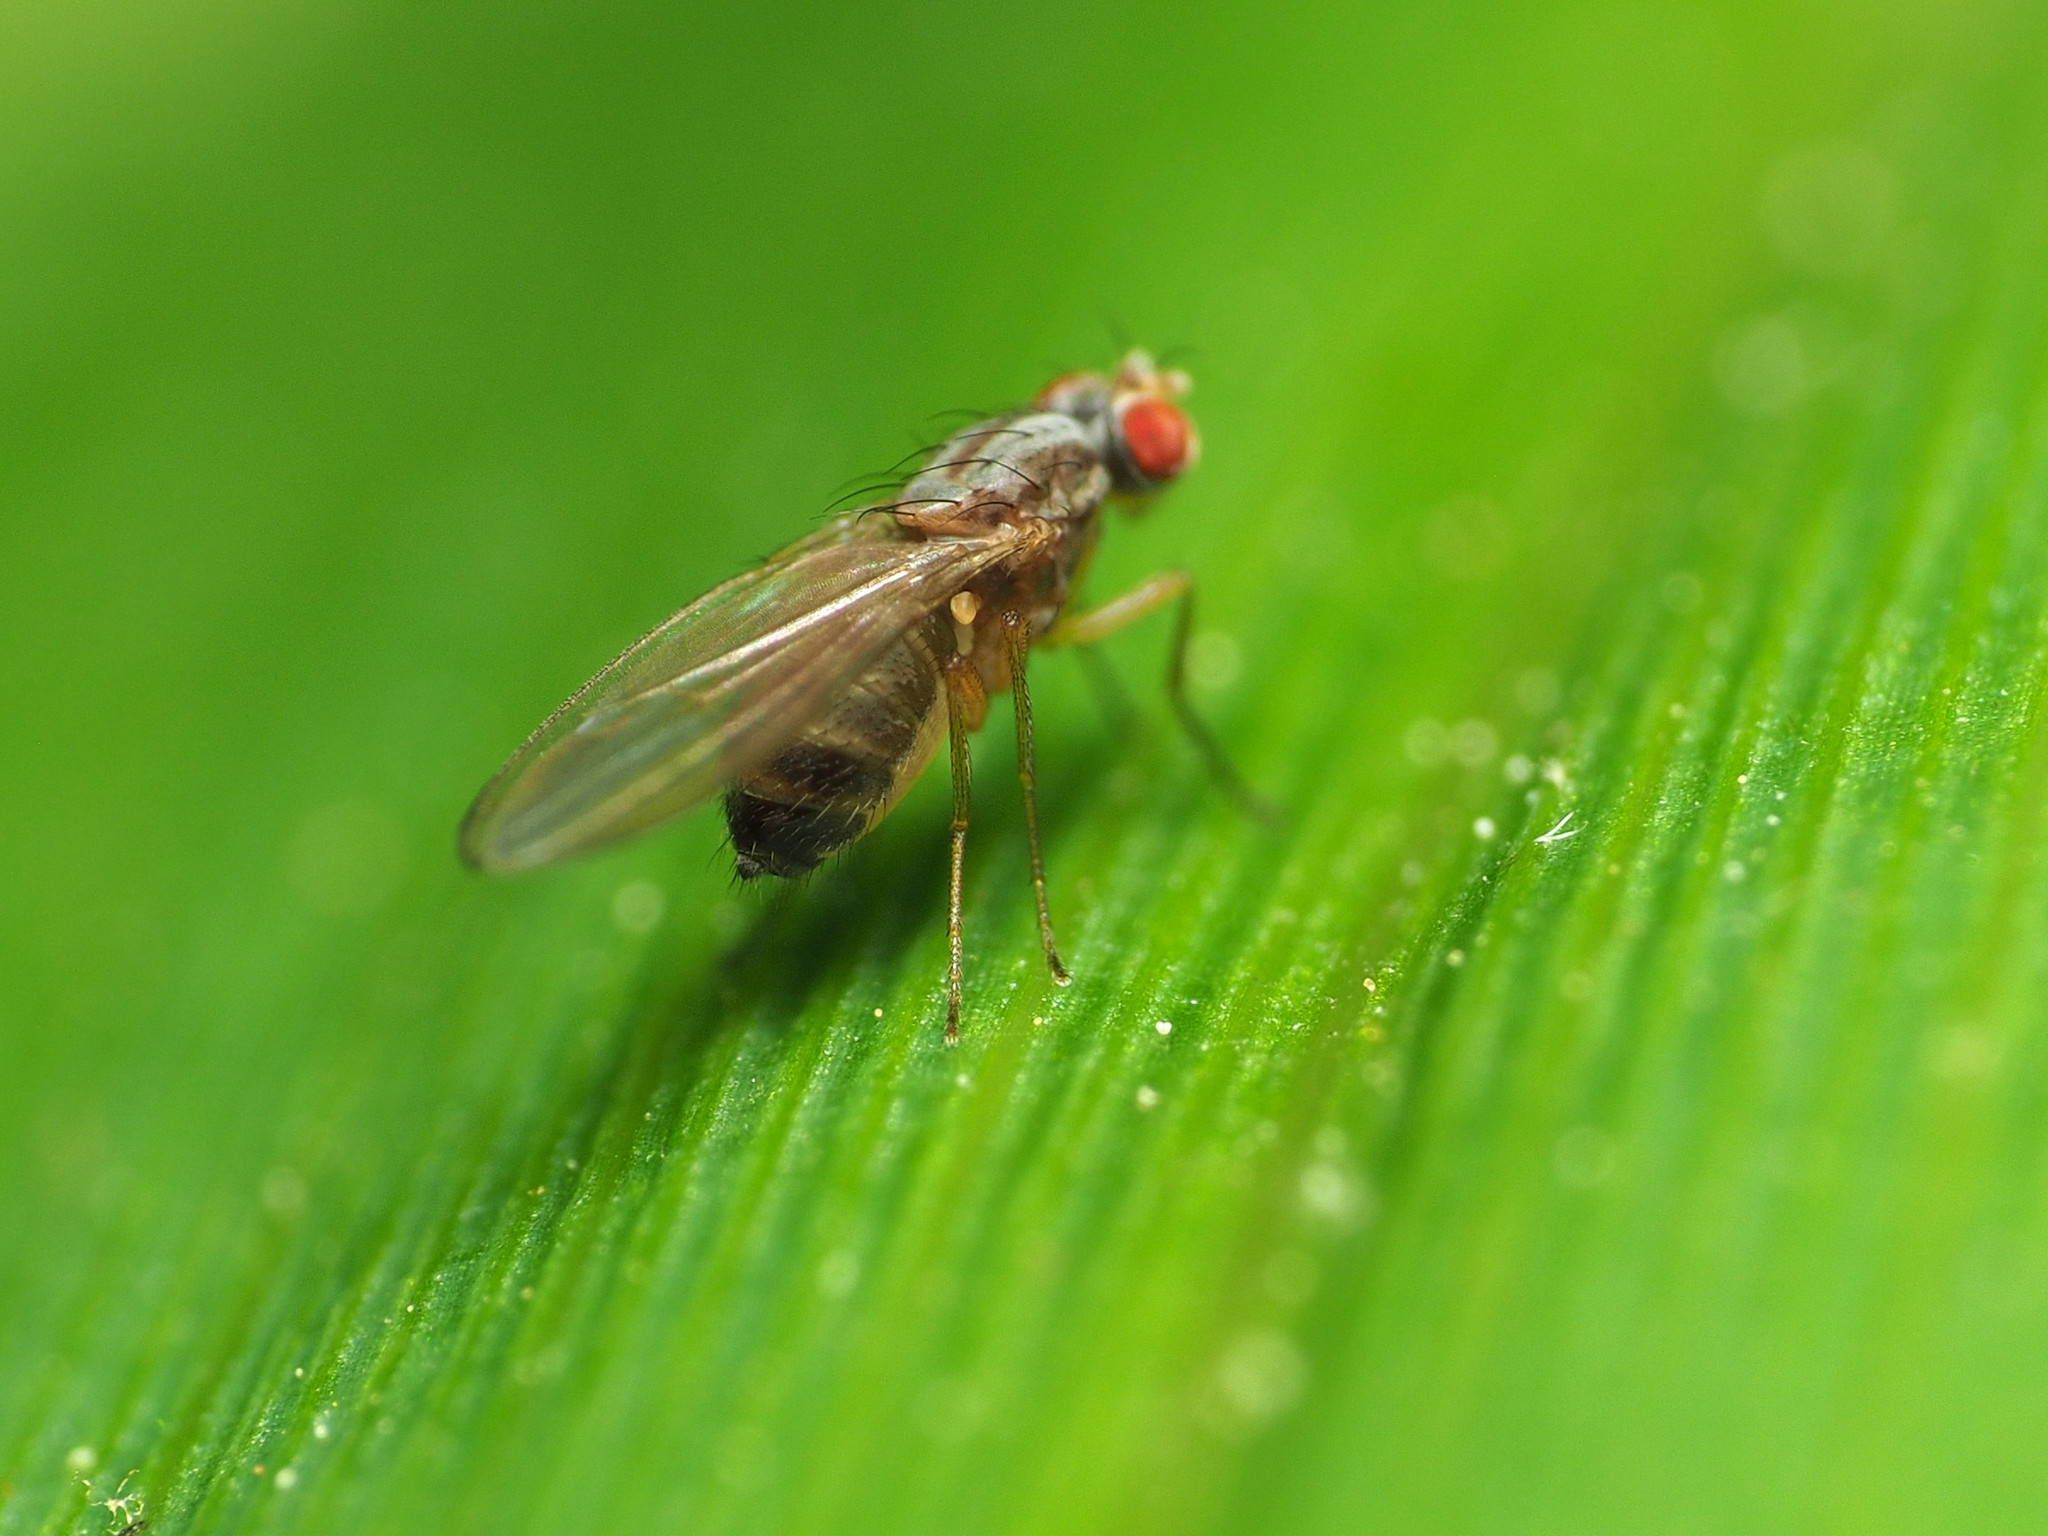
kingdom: Animalia
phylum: Arthropoda
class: Insecta
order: Diptera
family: Drosophilidae
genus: Scaptomyza
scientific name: Scaptomyza pallida
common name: Pomace fly
